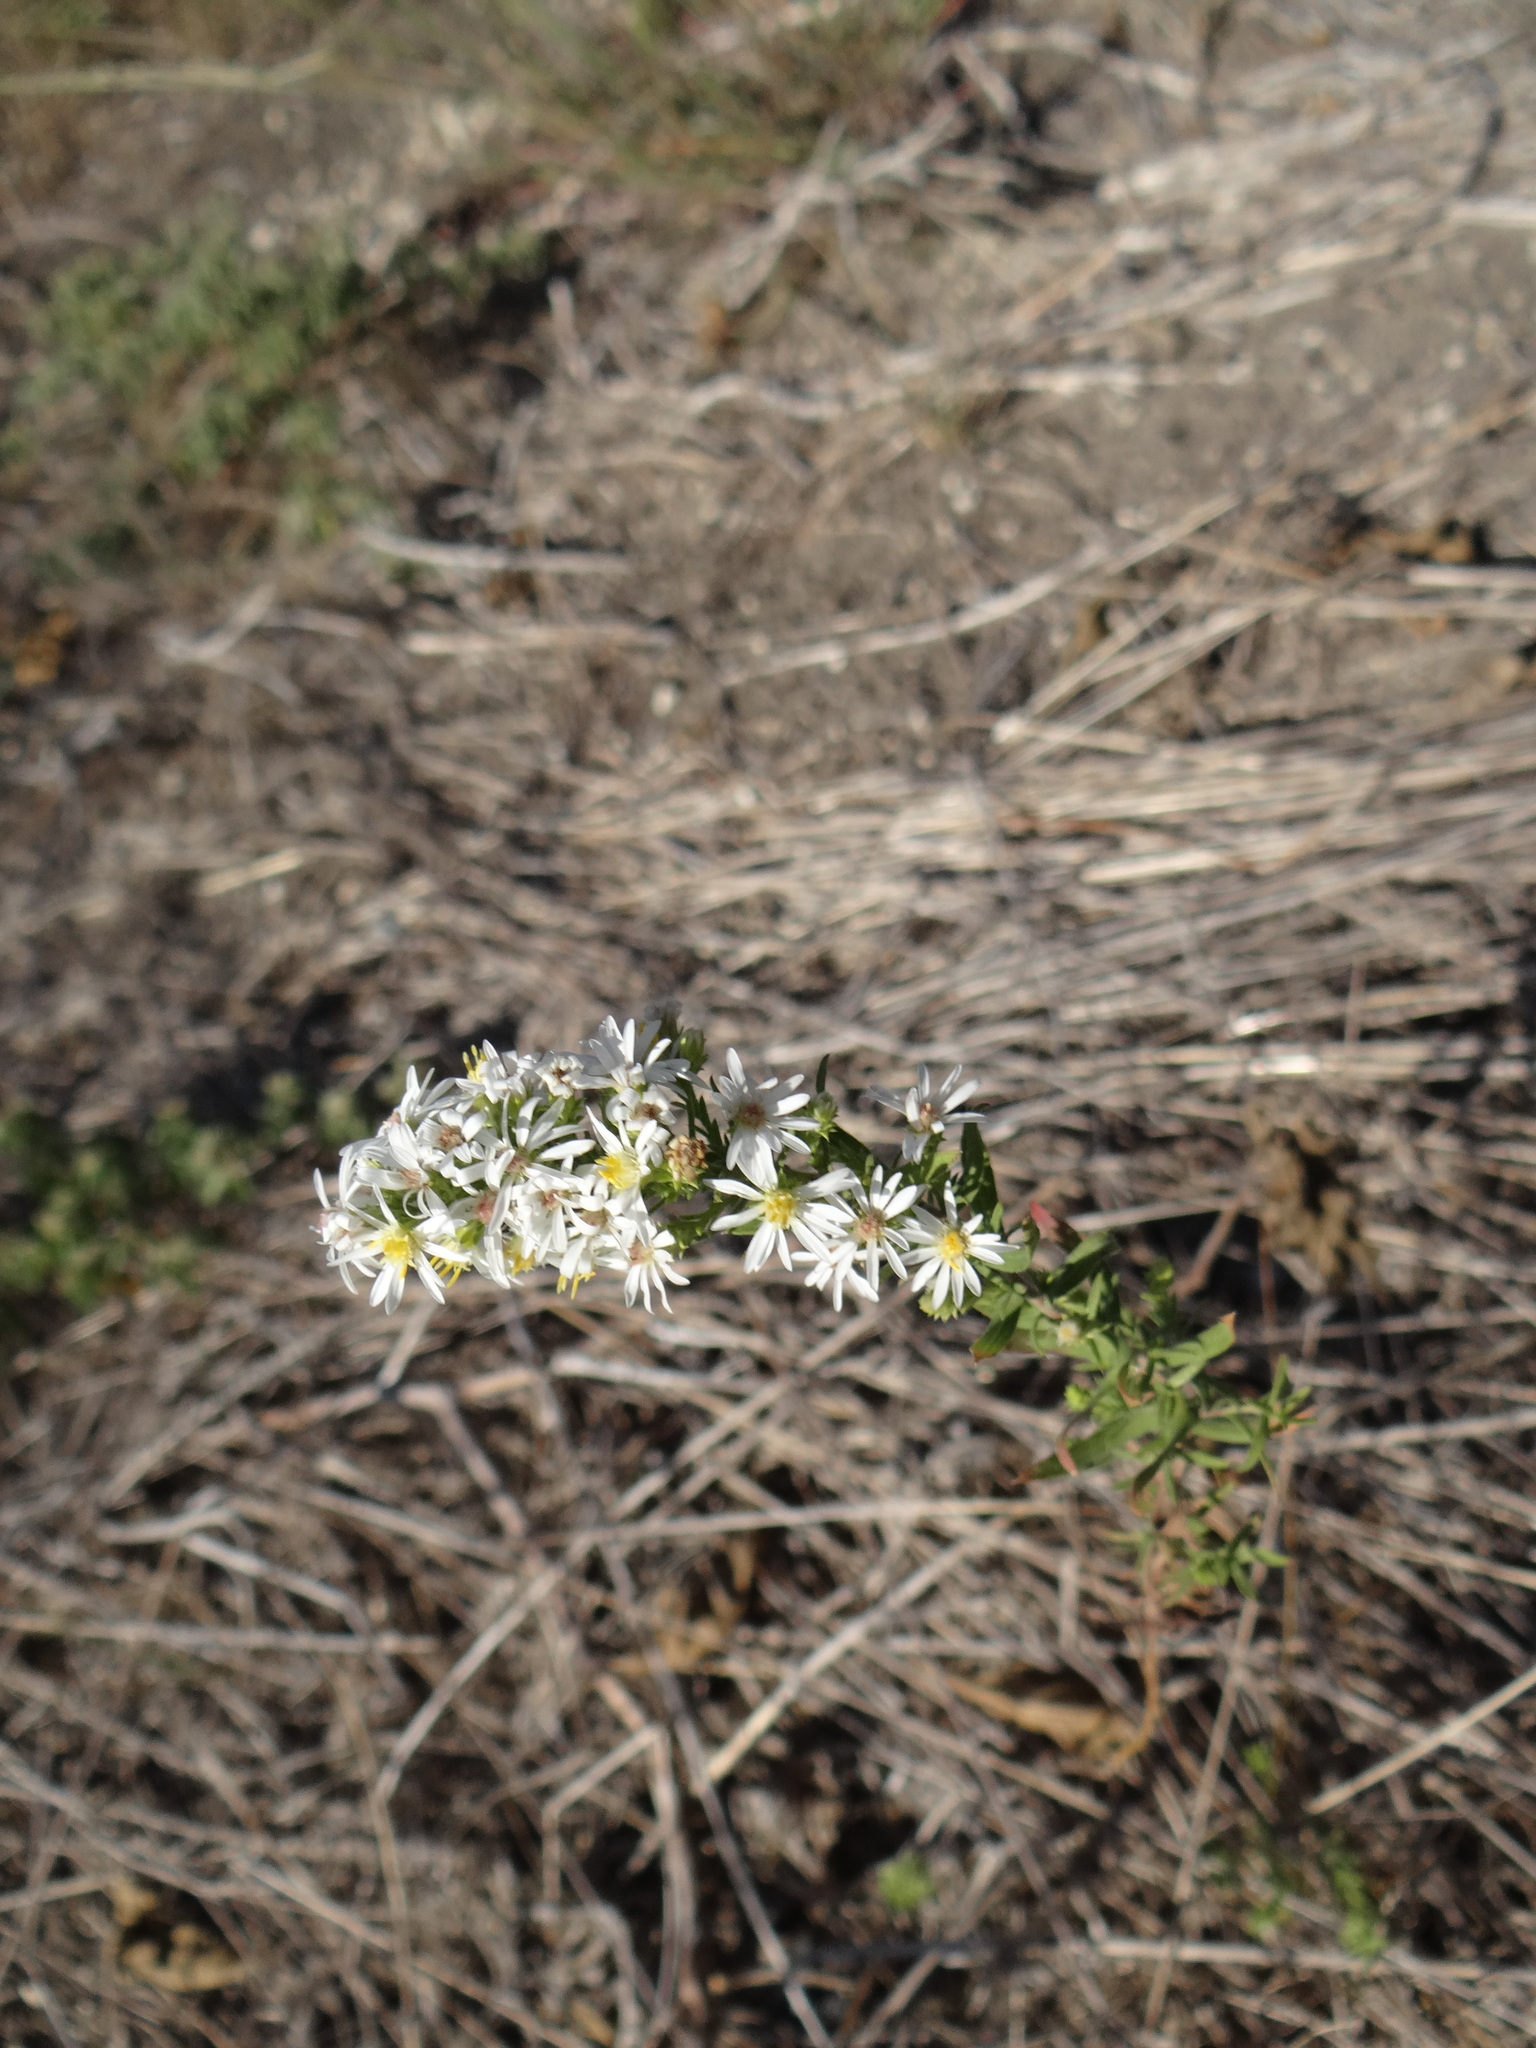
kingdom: Plantae
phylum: Tracheophyta
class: Magnoliopsida
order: Asterales
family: Asteraceae
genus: Symphyotrichum
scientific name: Symphyotrichum ericoides
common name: Heath aster
